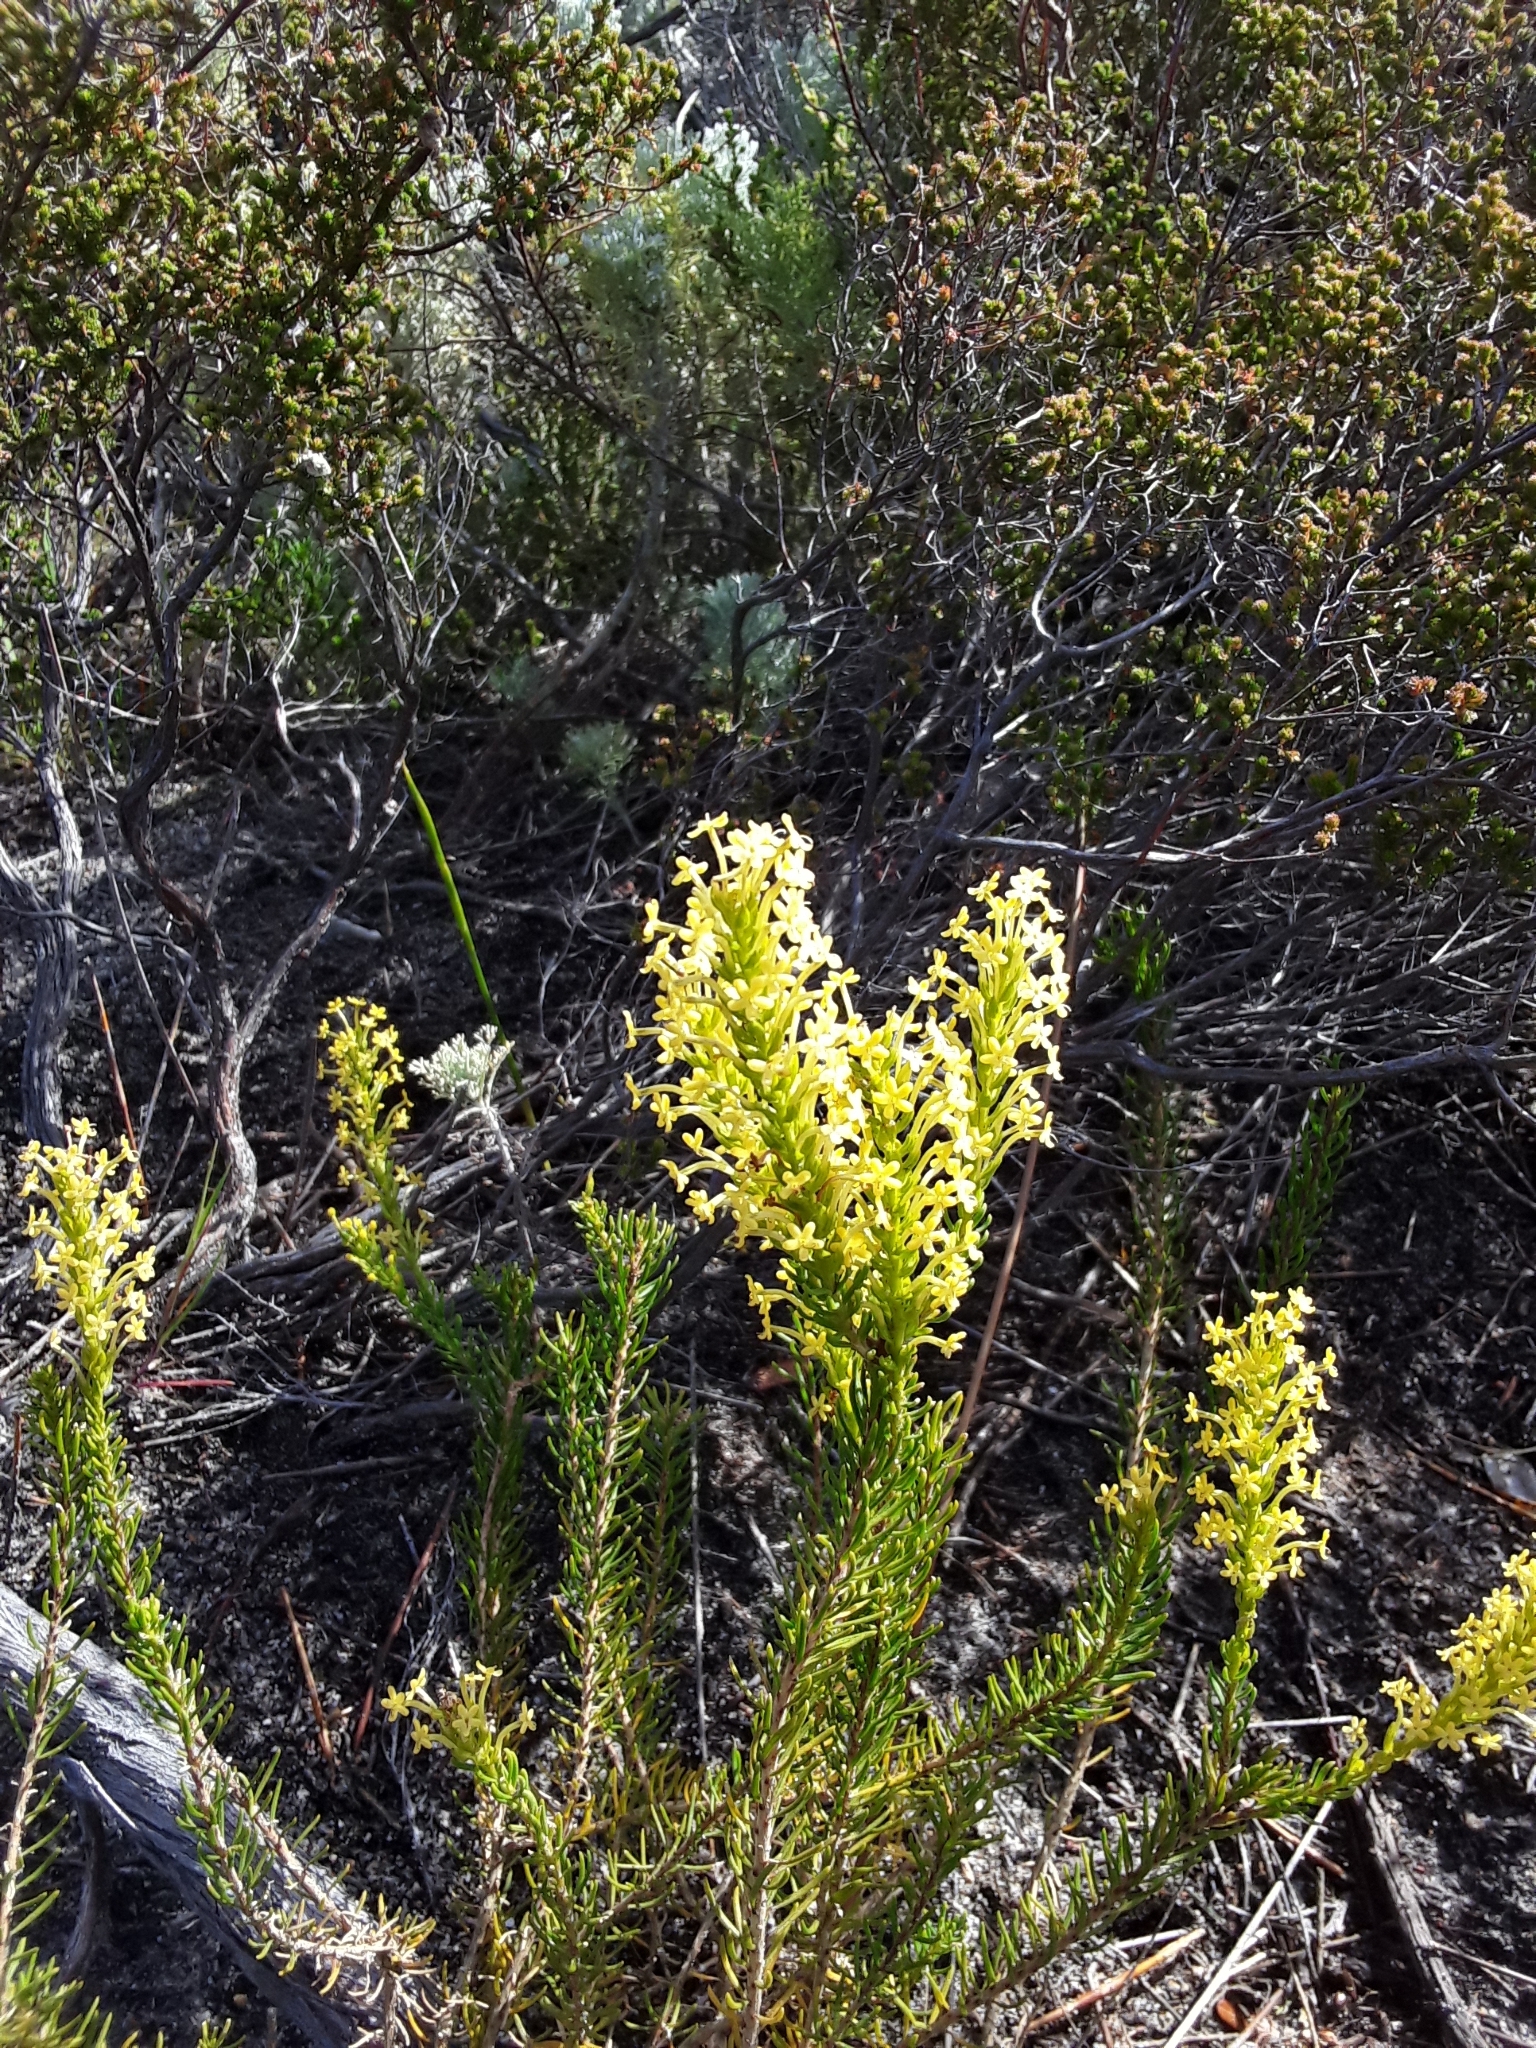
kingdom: Plantae
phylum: Tracheophyta
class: Magnoliopsida
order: Lamiales
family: Scrophulariaceae
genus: Microdon
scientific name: Microdon dubius
